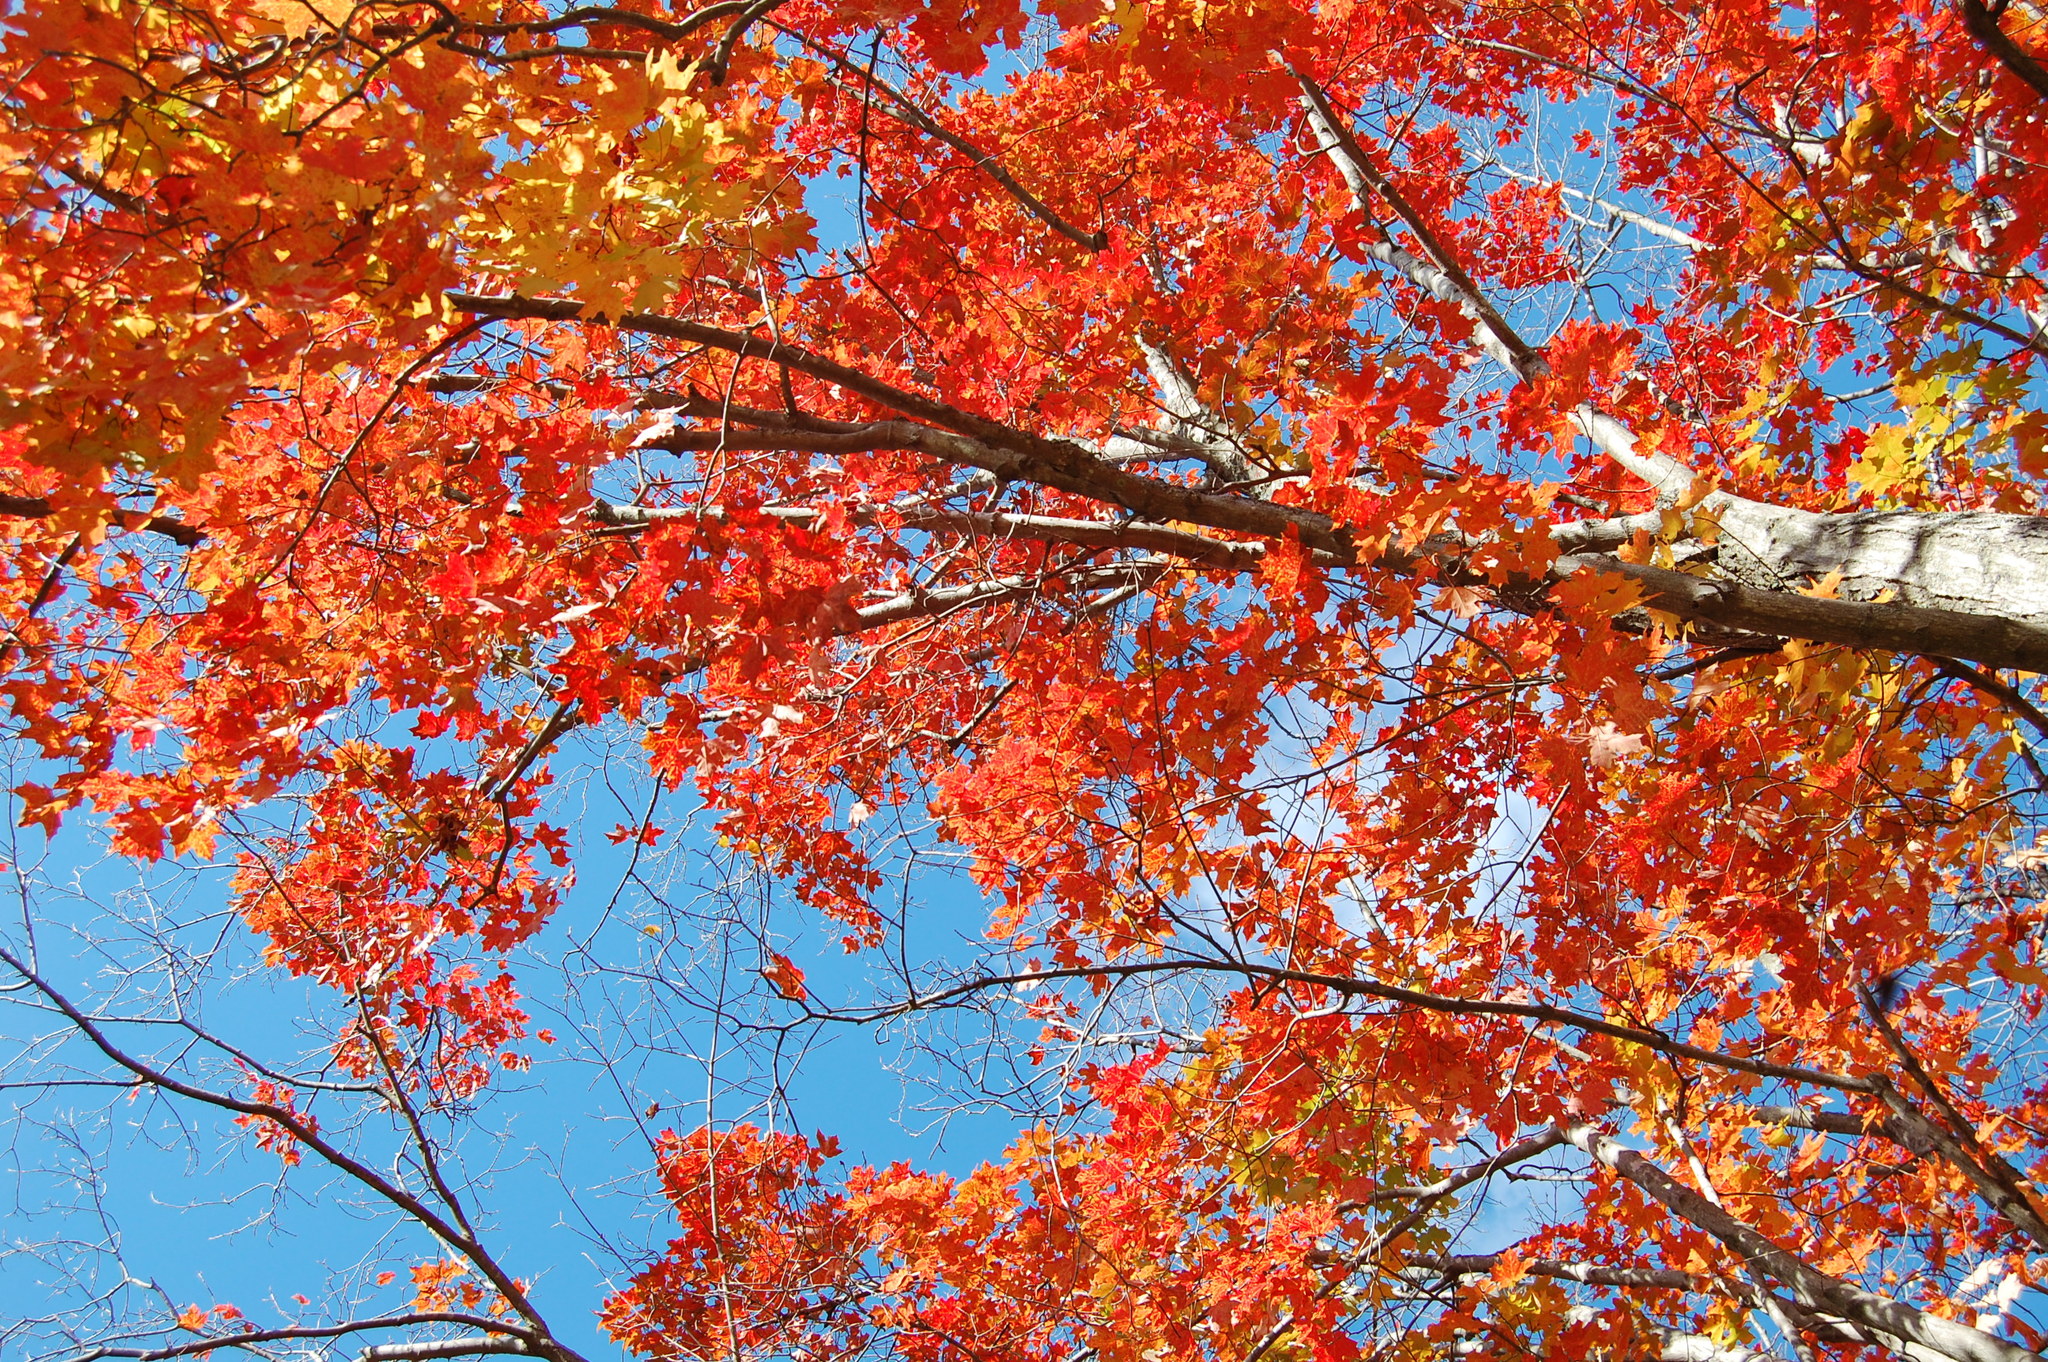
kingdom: Plantae
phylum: Tracheophyta
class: Magnoliopsida
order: Sapindales
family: Sapindaceae
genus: Acer
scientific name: Acer saccharum
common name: Sugar maple
